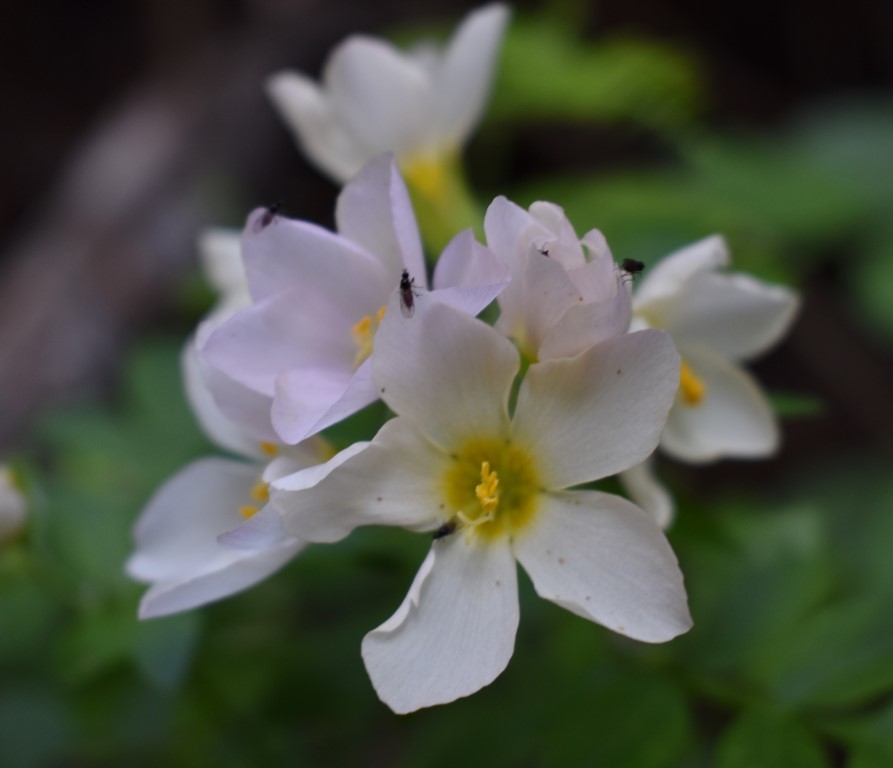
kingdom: Plantae
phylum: Tracheophyta
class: Magnoliopsida
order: Ericales
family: Polemoniaceae
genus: Polemonium
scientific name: Polemonium carneum
